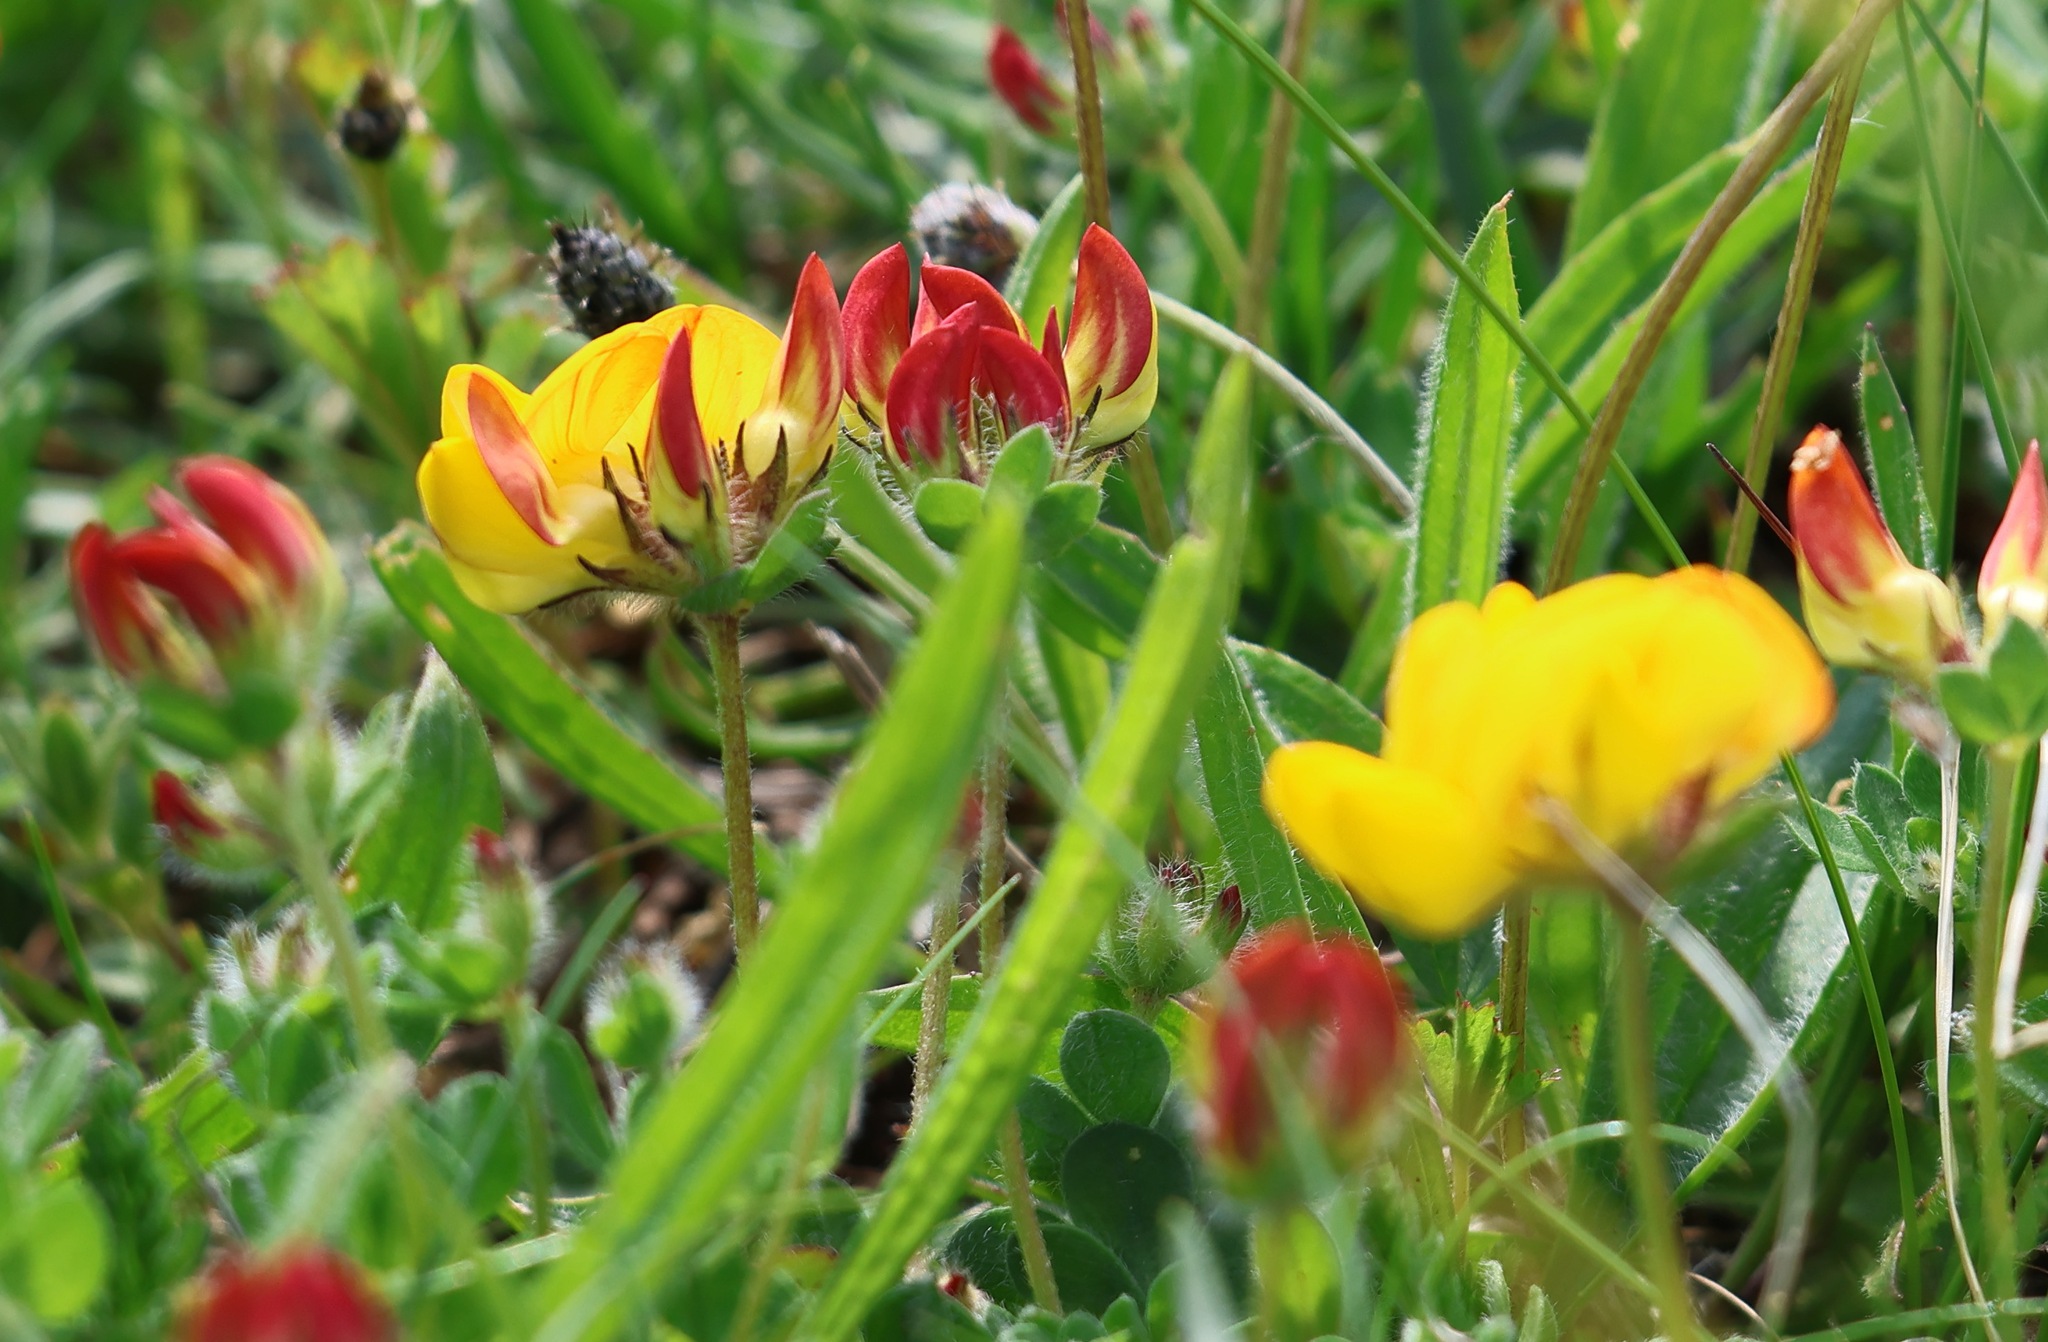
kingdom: Plantae
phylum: Tracheophyta
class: Magnoliopsida
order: Fabales
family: Fabaceae
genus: Lotus
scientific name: Lotus corniculatus
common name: Common bird's-foot-trefoil
